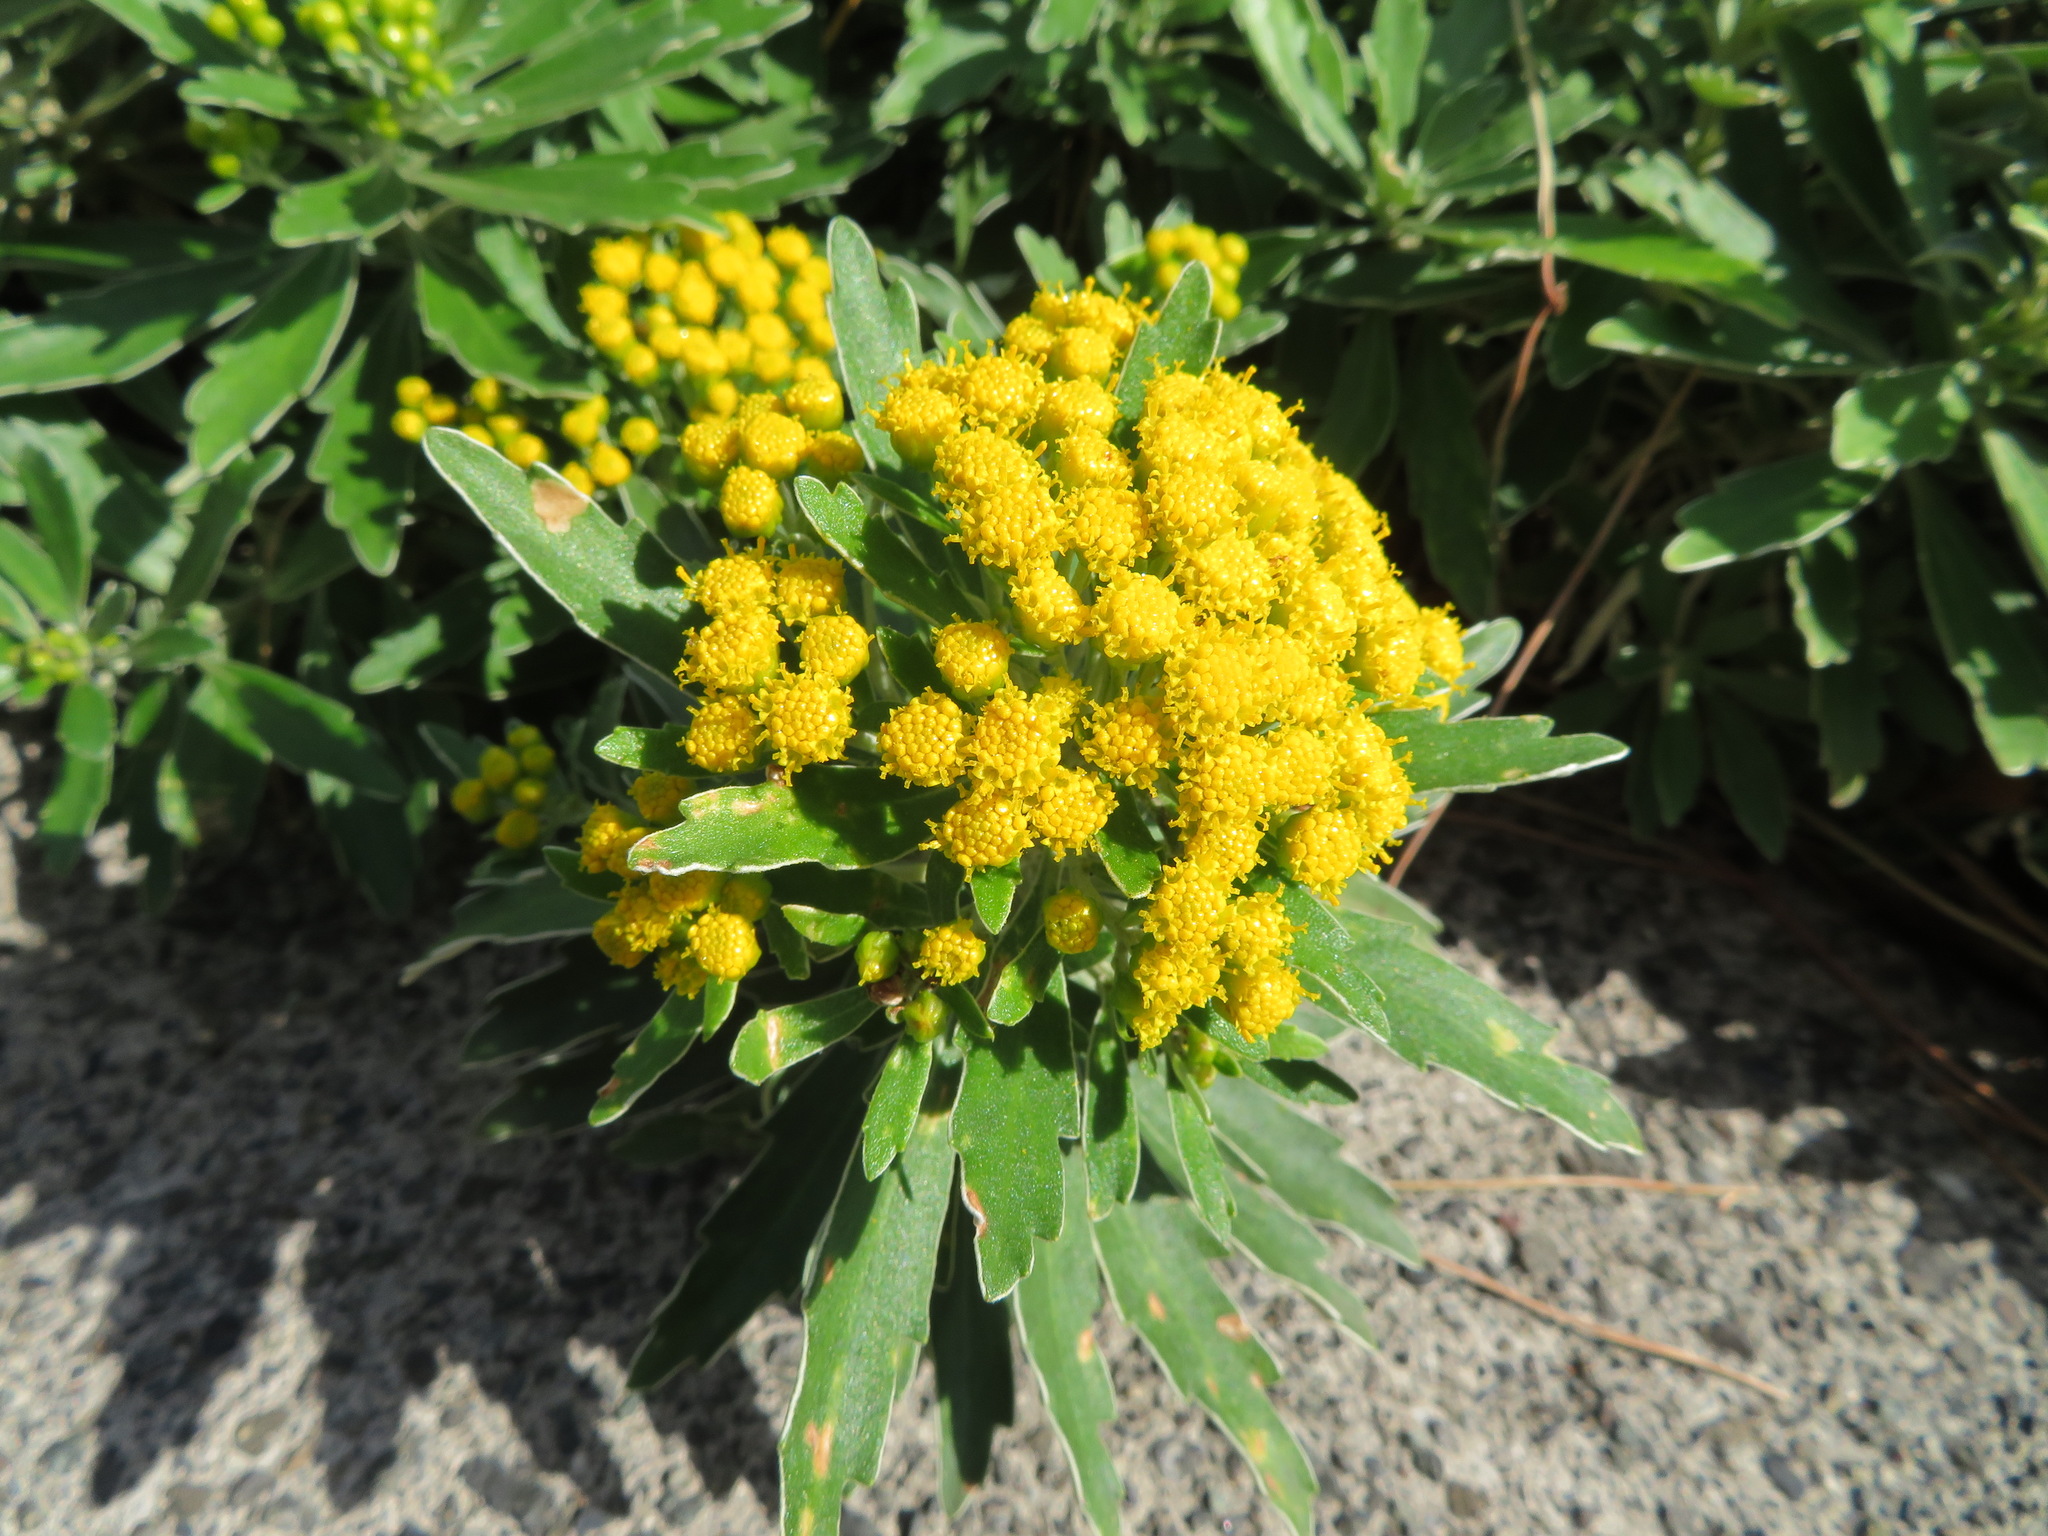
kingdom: Plantae
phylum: Tracheophyta
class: Magnoliopsida
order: Asterales
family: Asteraceae
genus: Ajania
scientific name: Ajania pacifica
